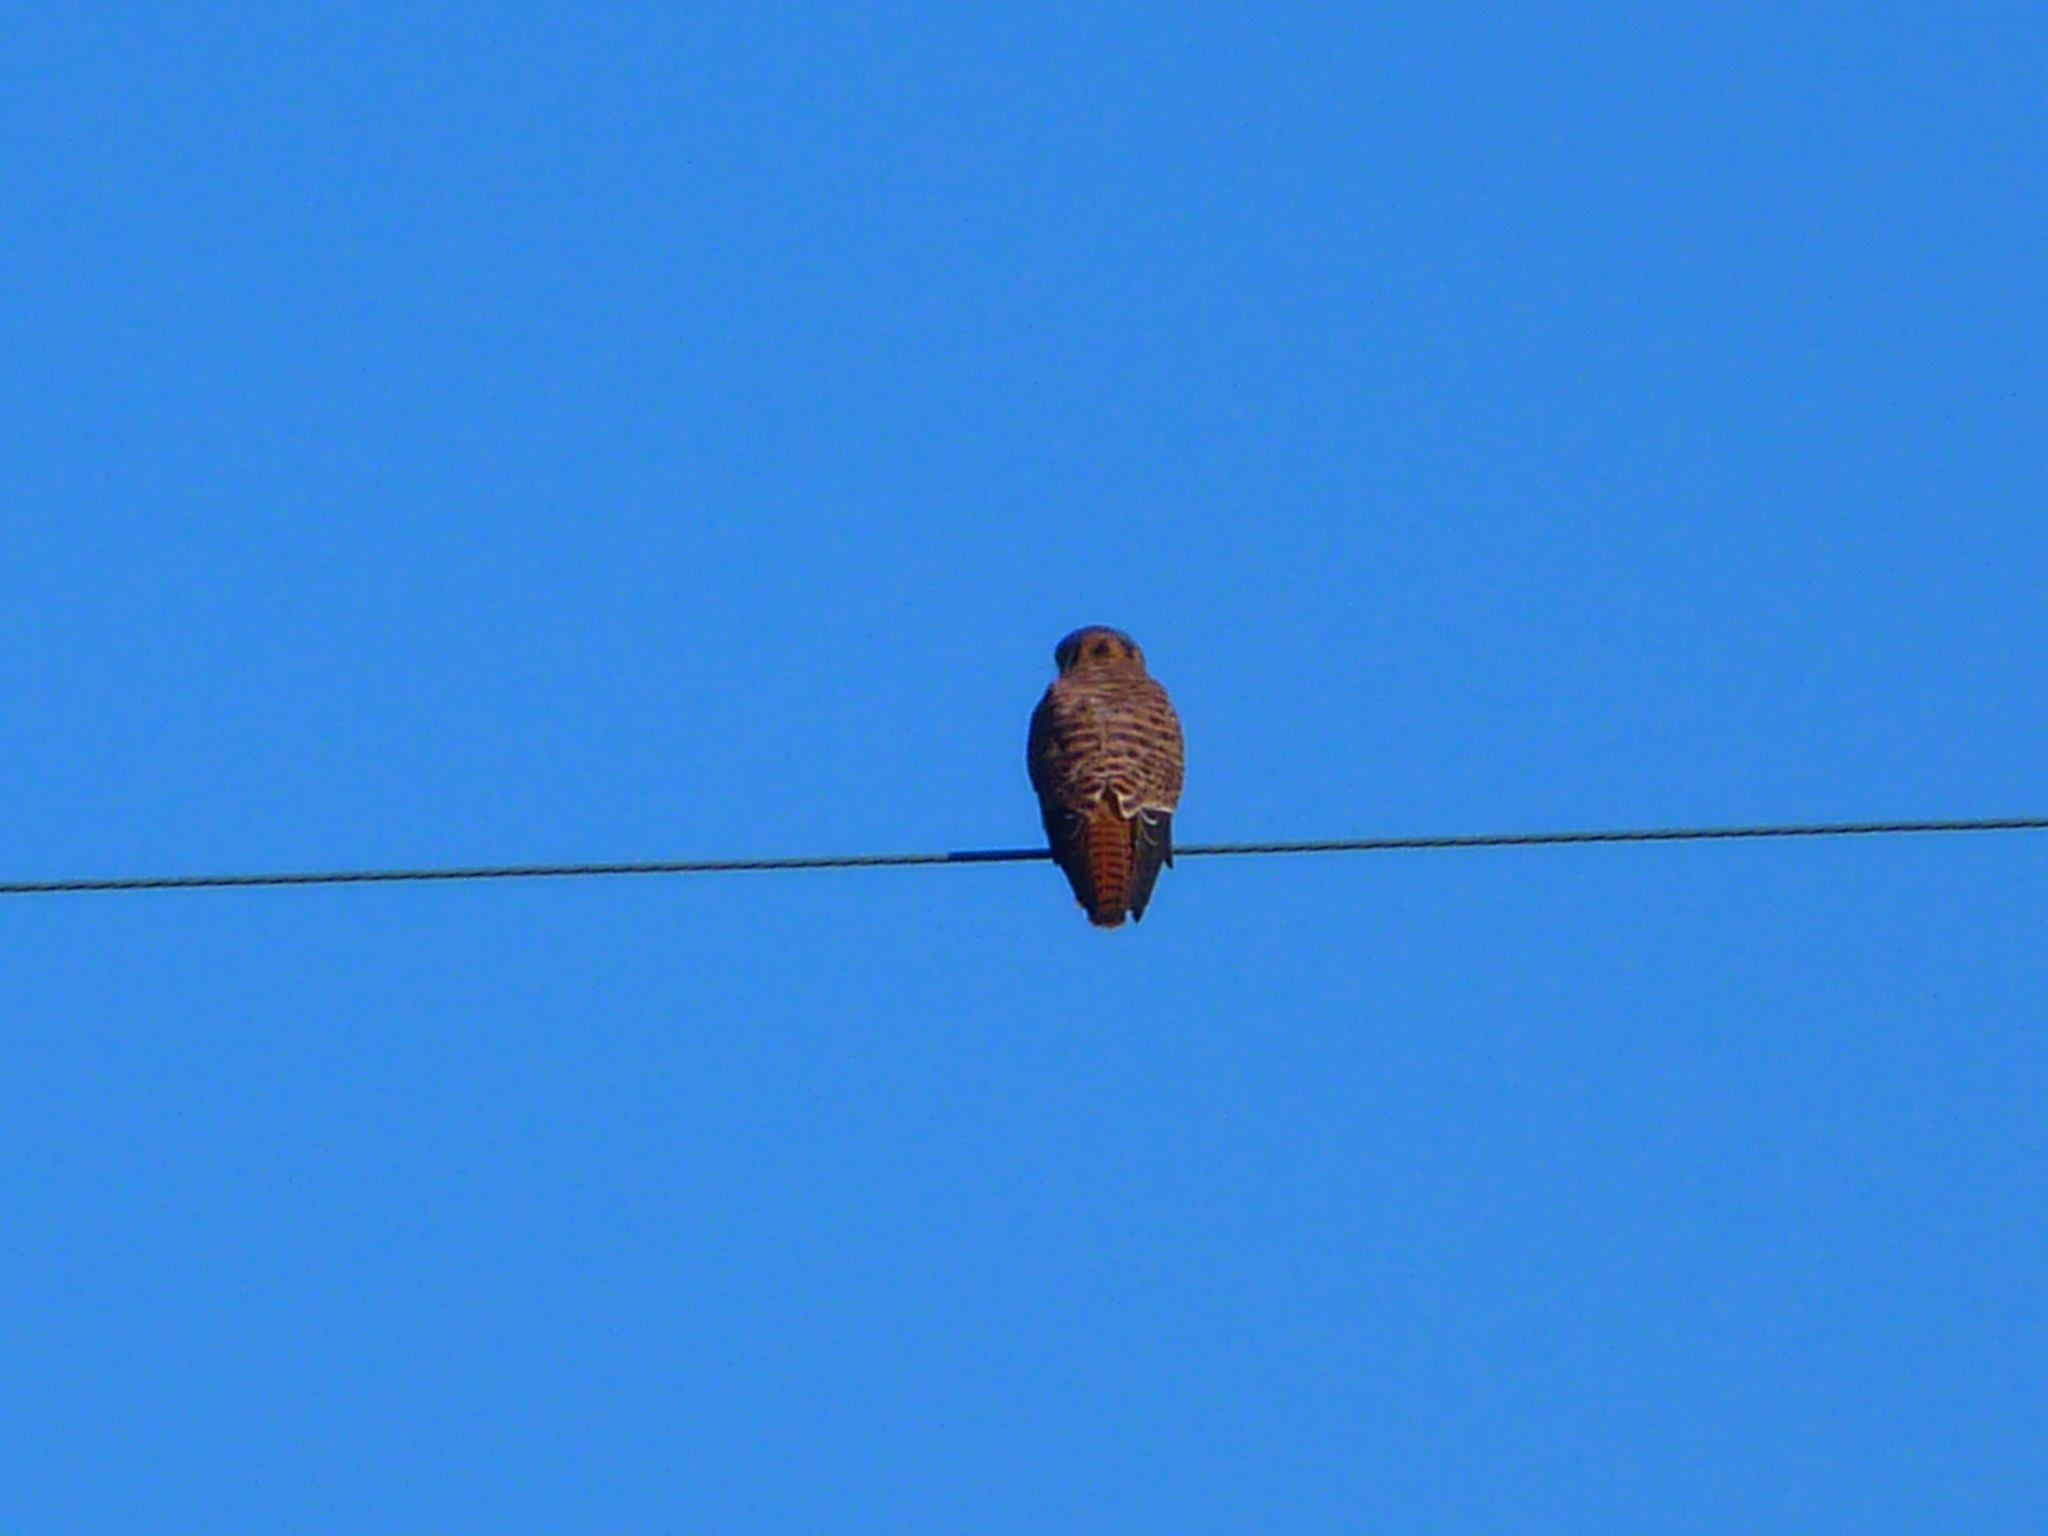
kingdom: Animalia
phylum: Chordata
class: Aves
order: Falconiformes
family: Falconidae
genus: Falco
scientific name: Falco sparverius
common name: American kestrel
